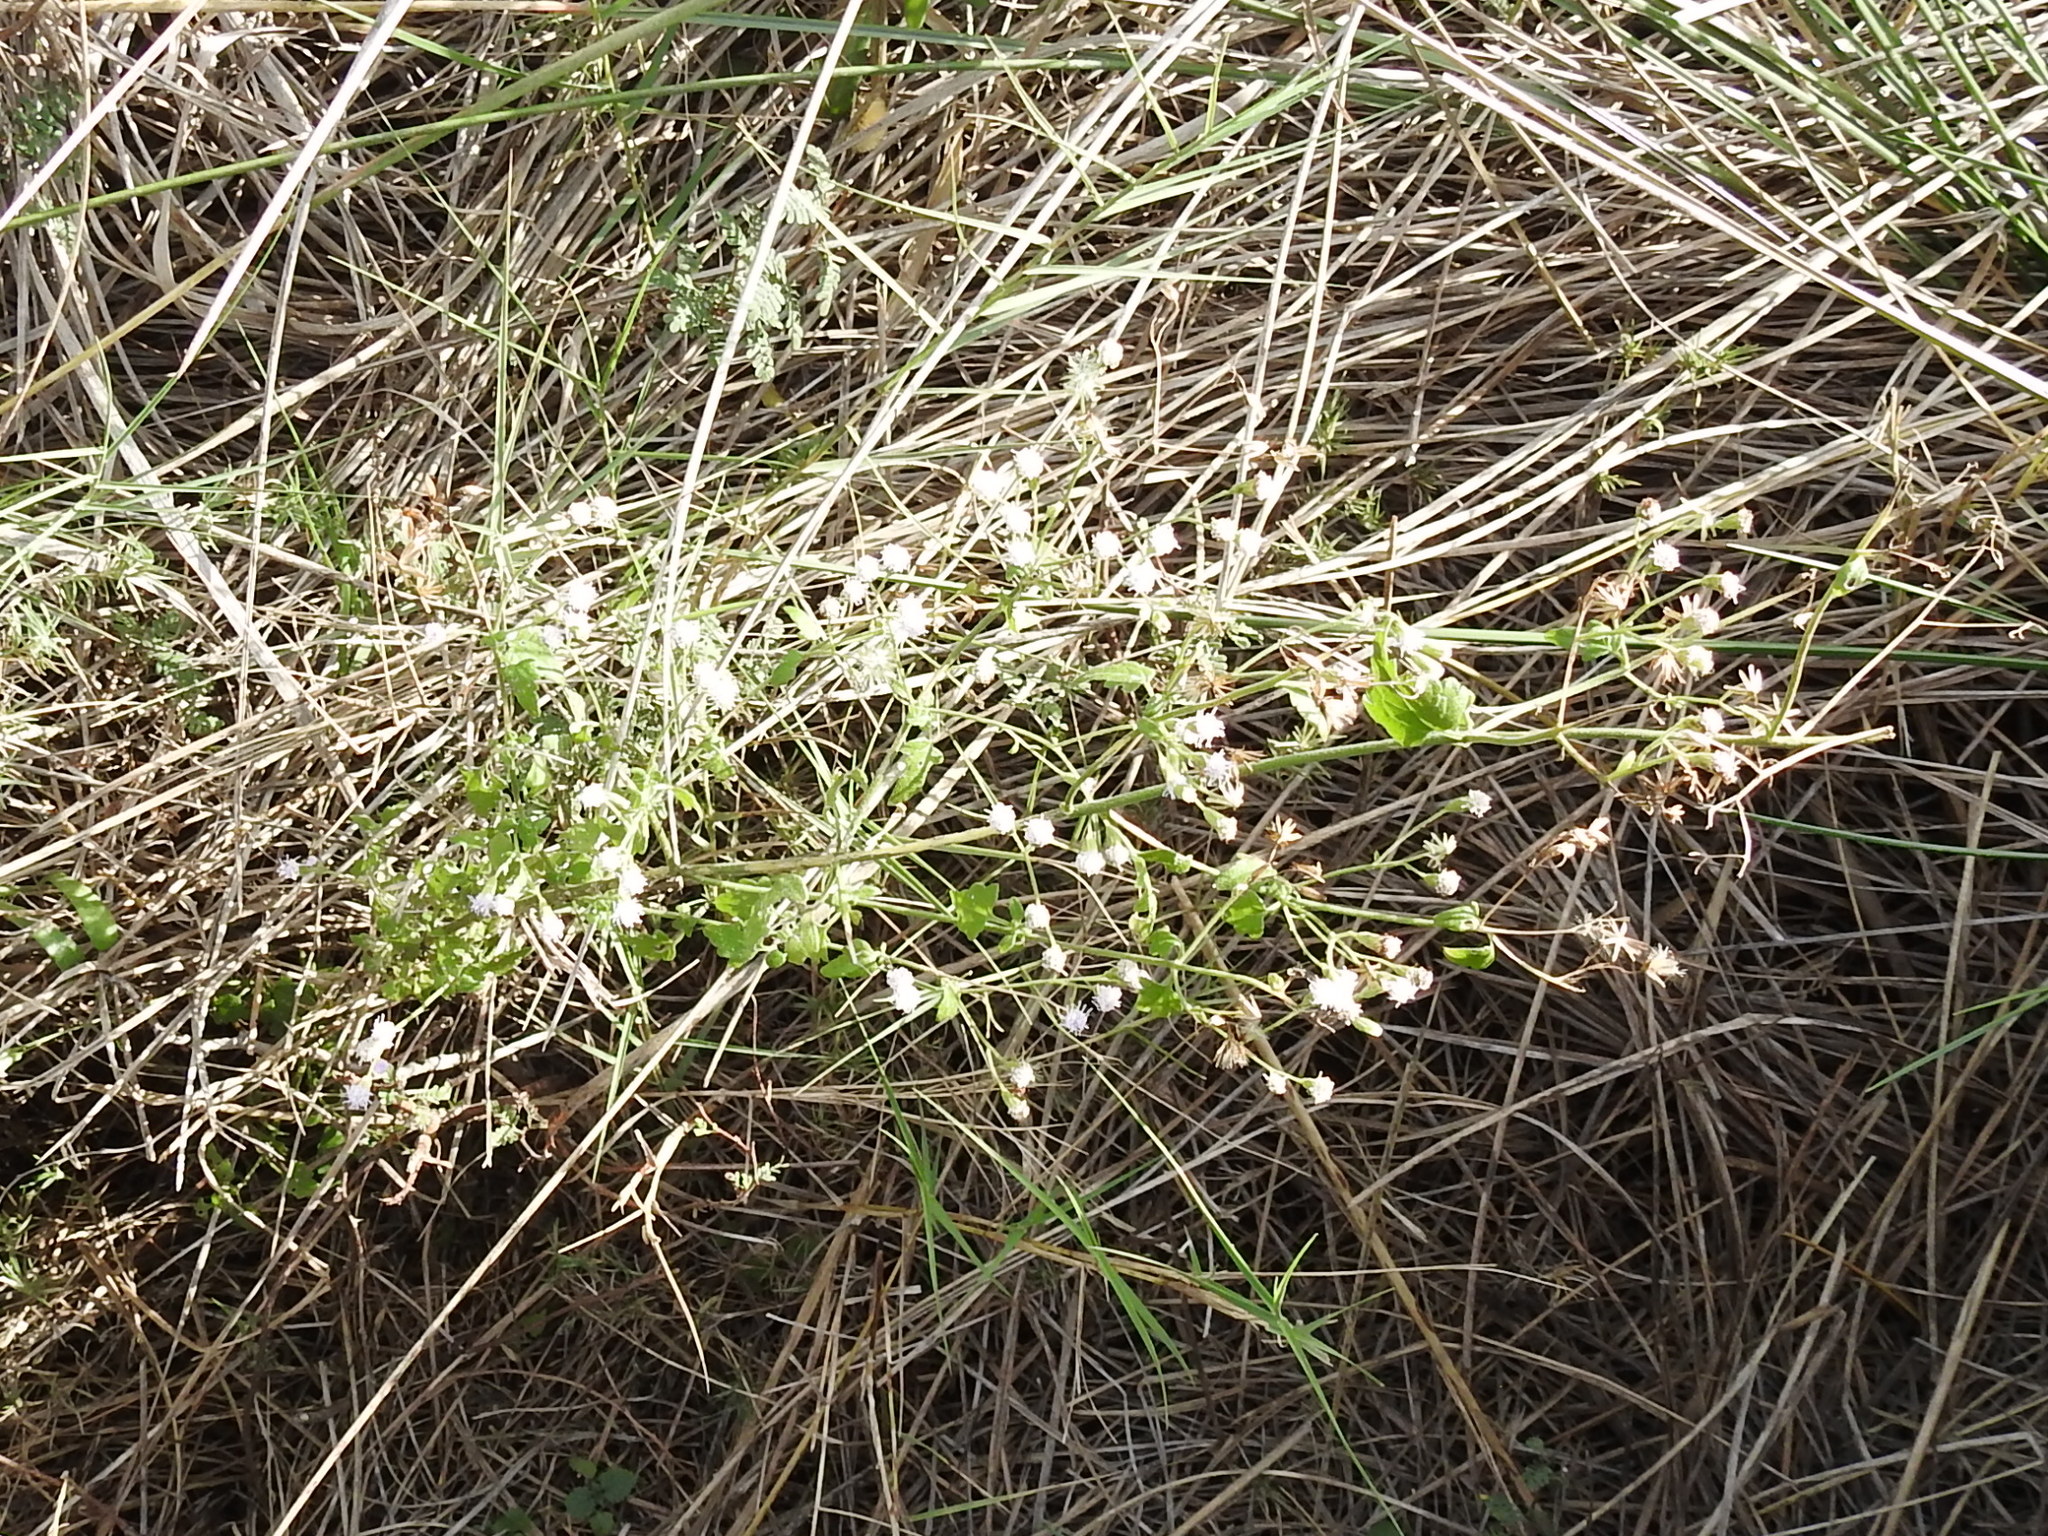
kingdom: Plantae
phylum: Tracheophyta
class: Magnoliopsida
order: Asterales
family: Asteraceae
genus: Fleischmannia
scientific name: Fleischmannia incarnata
